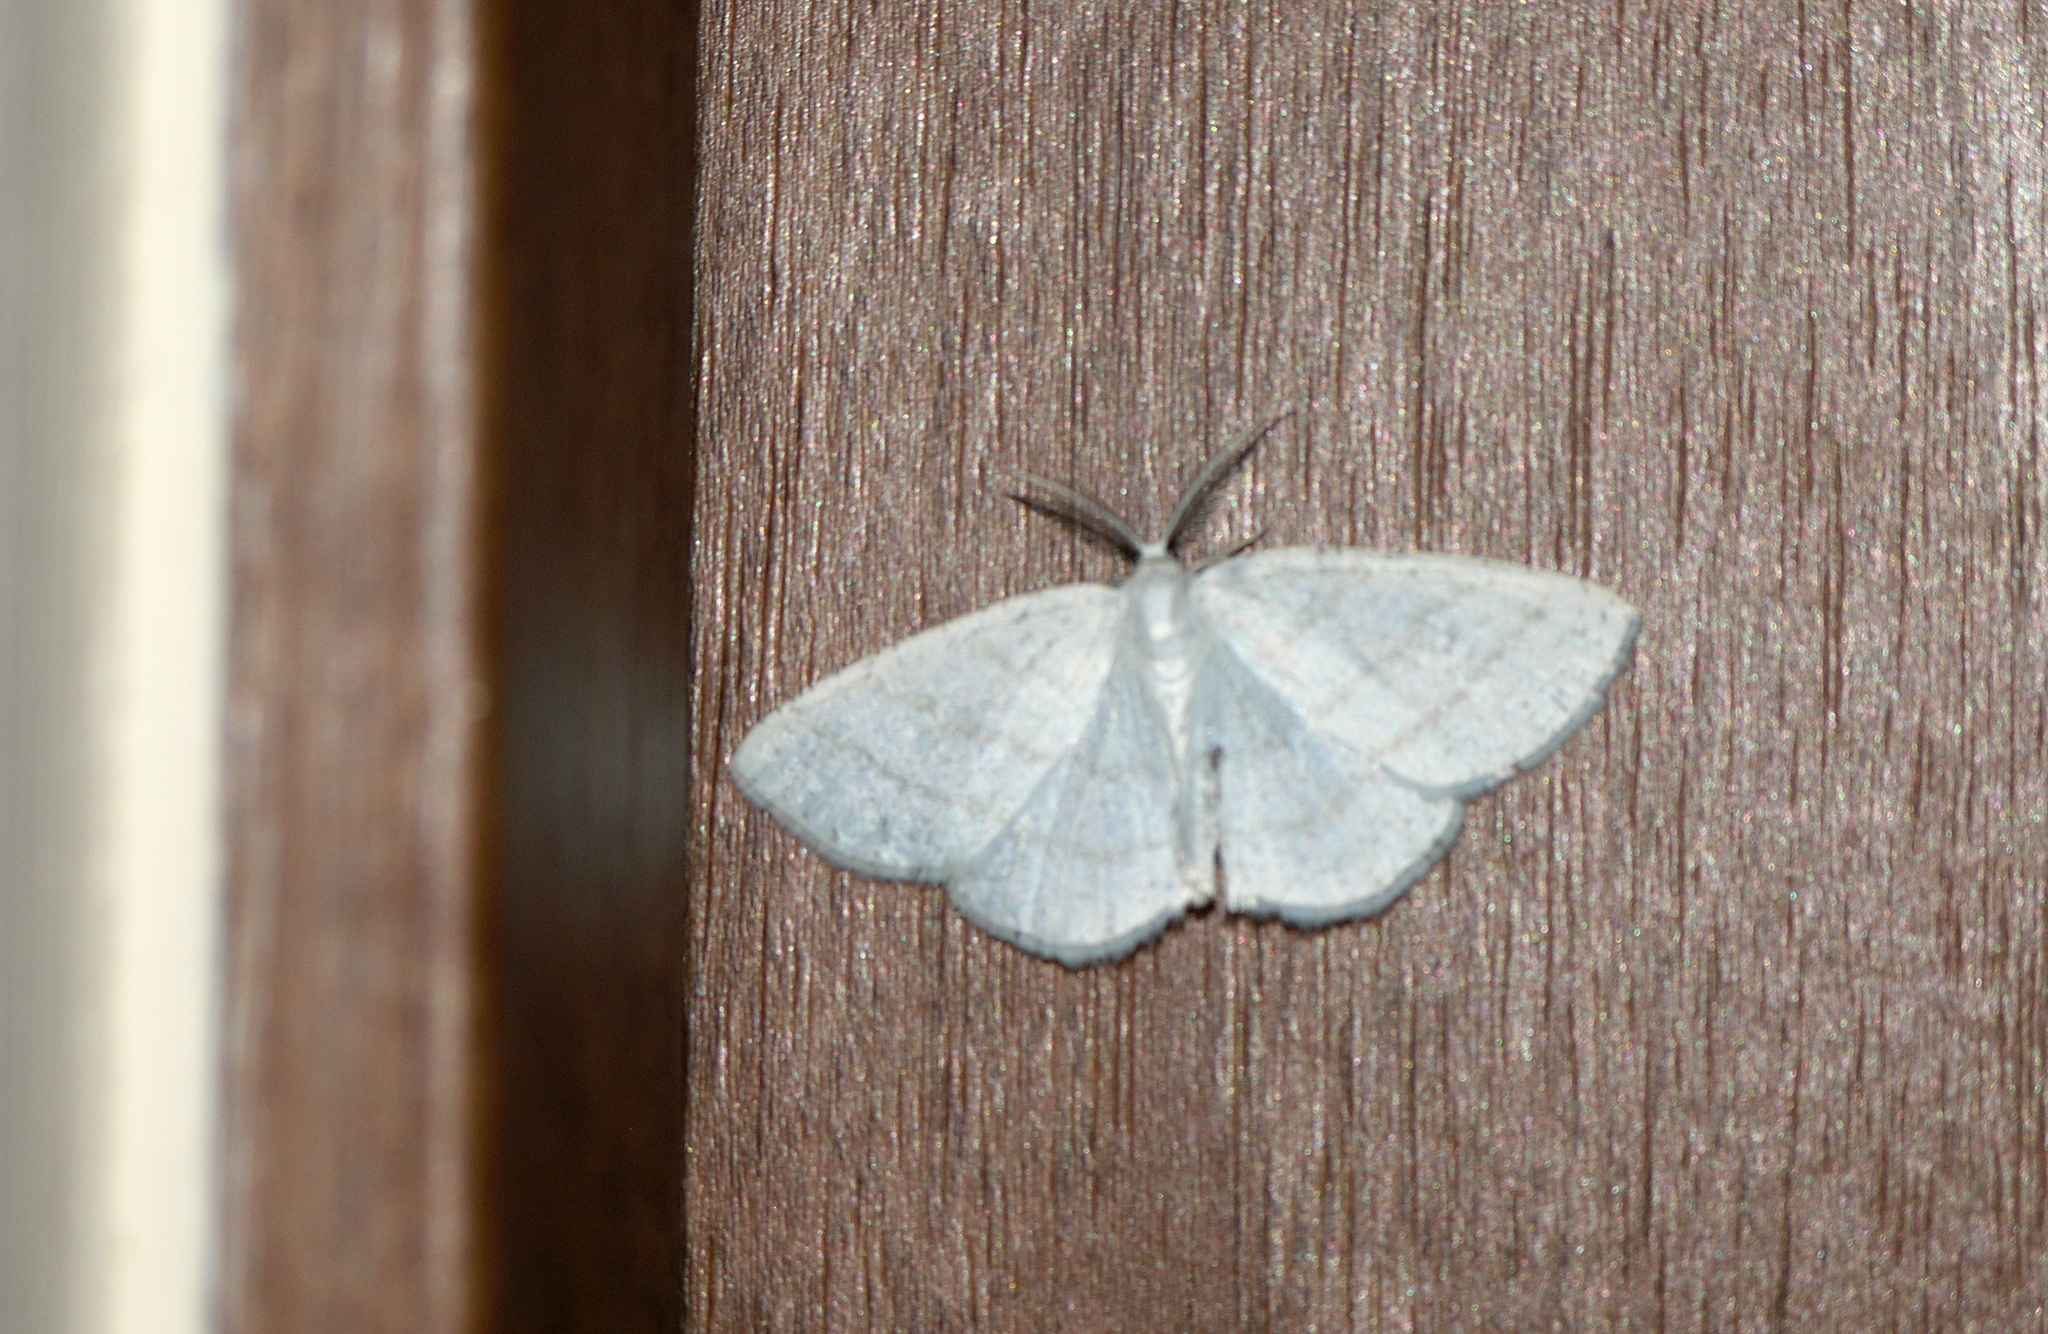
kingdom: Animalia
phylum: Arthropoda
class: Insecta
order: Lepidoptera
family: Geometridae
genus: Cabera
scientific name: Cabera pusaria
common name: Common white wave
